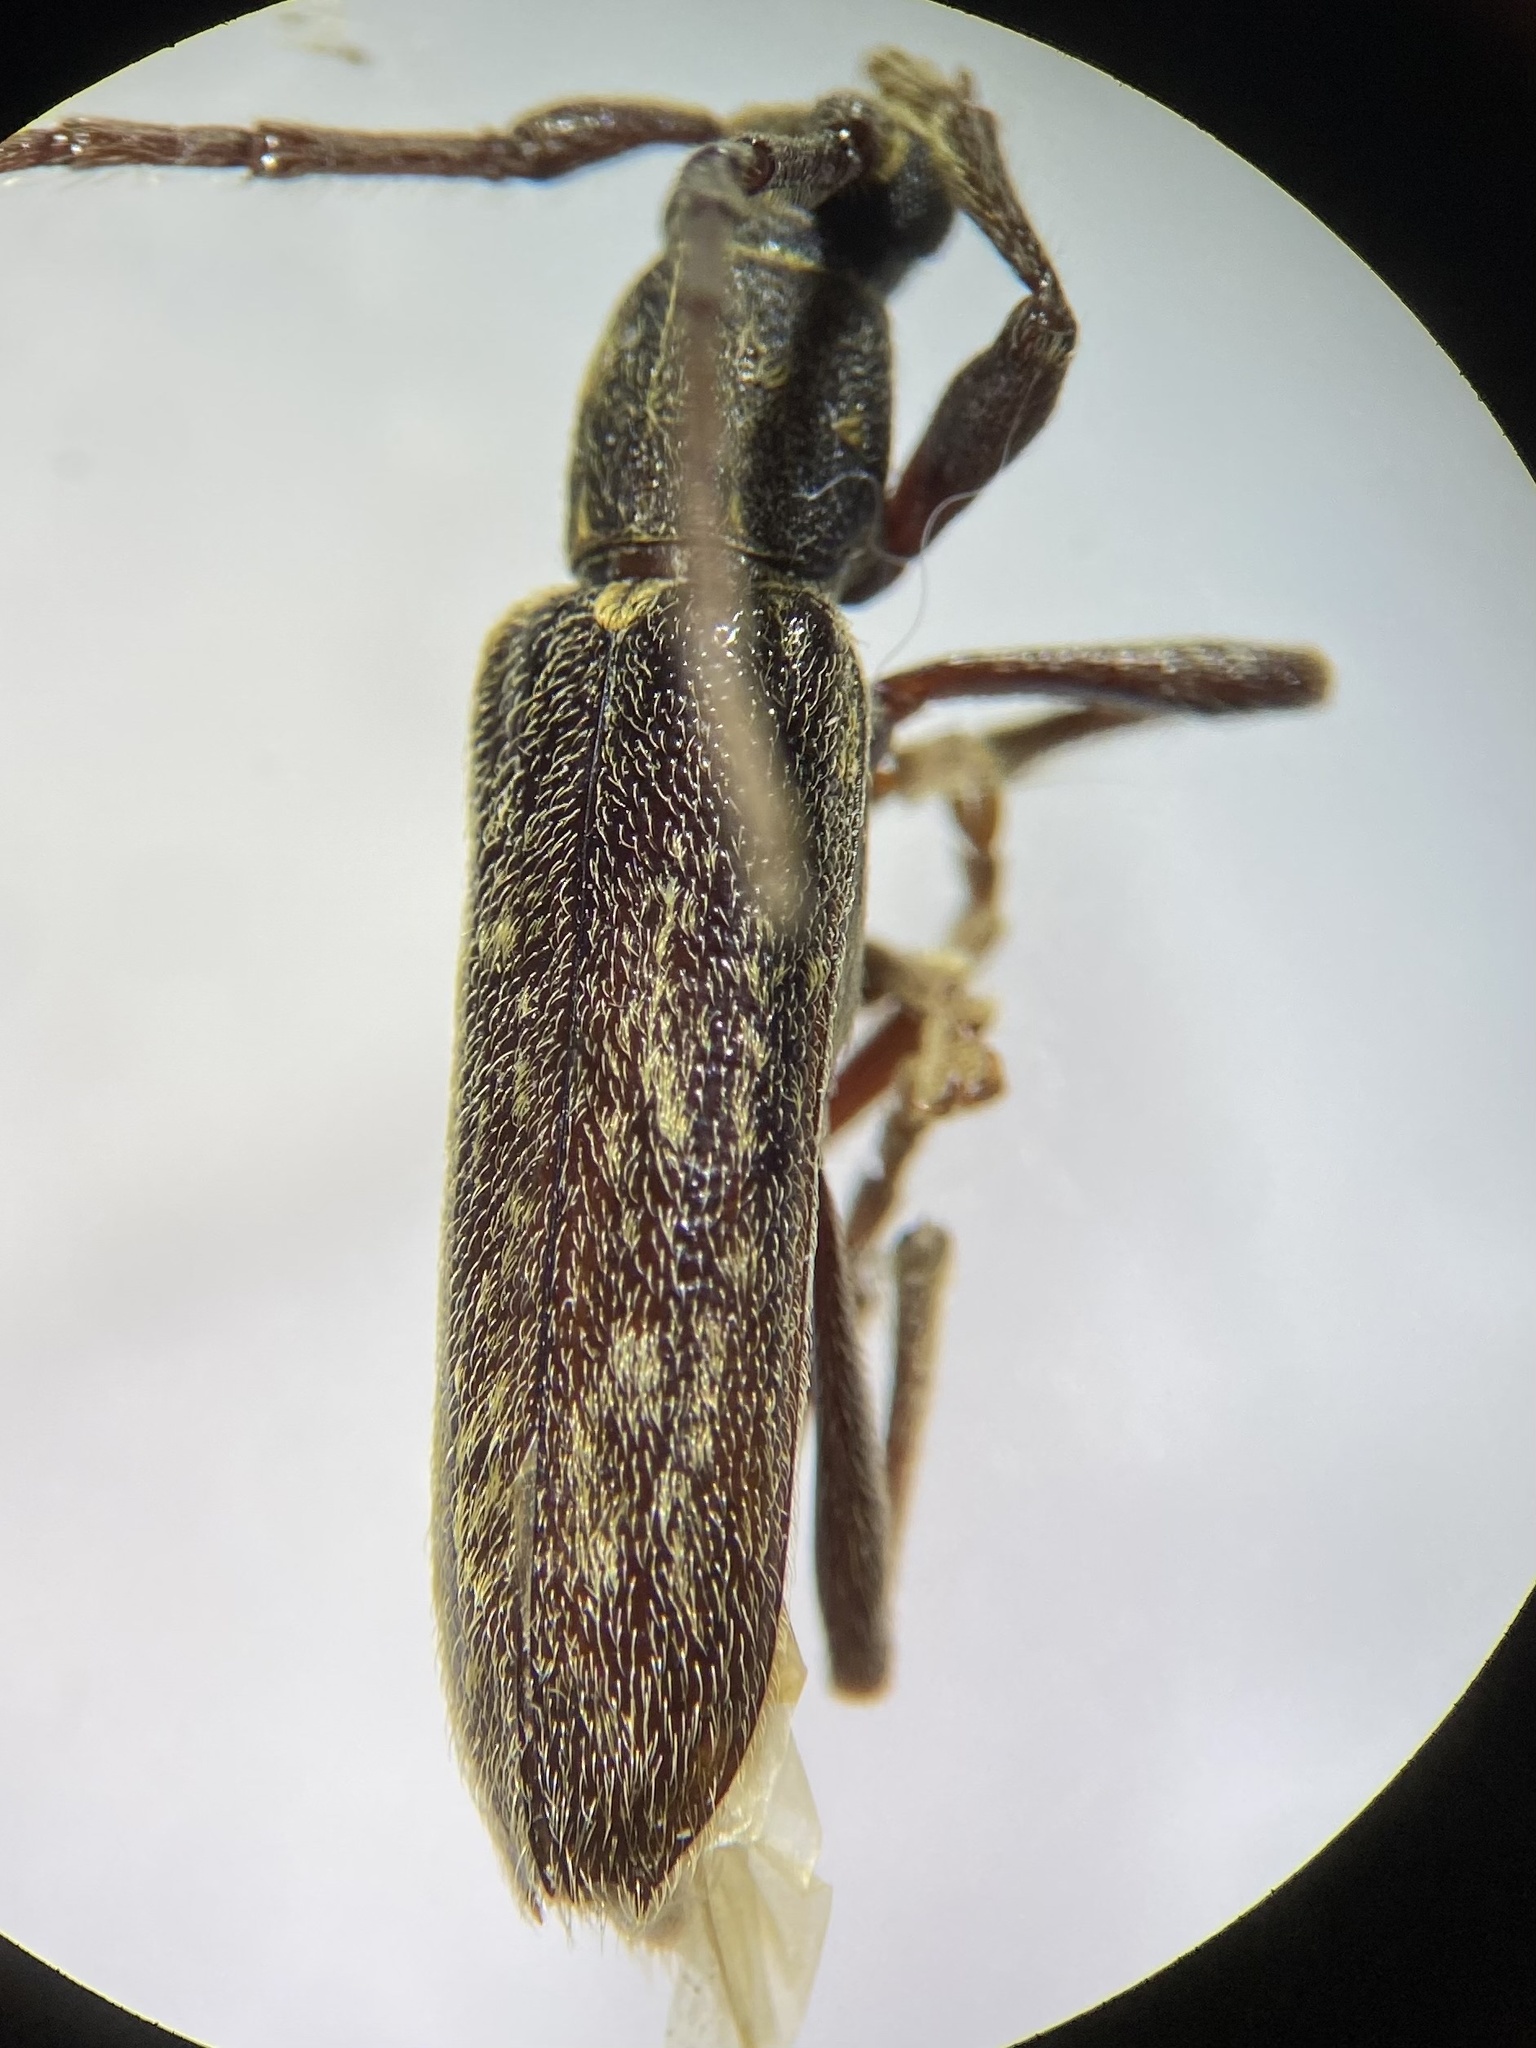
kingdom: Animalia
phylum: Arthropoda
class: Insecta
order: Coleoptera
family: Cerambycidae
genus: Anelaphus
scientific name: Anelaphus villosus
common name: Twig pruner
